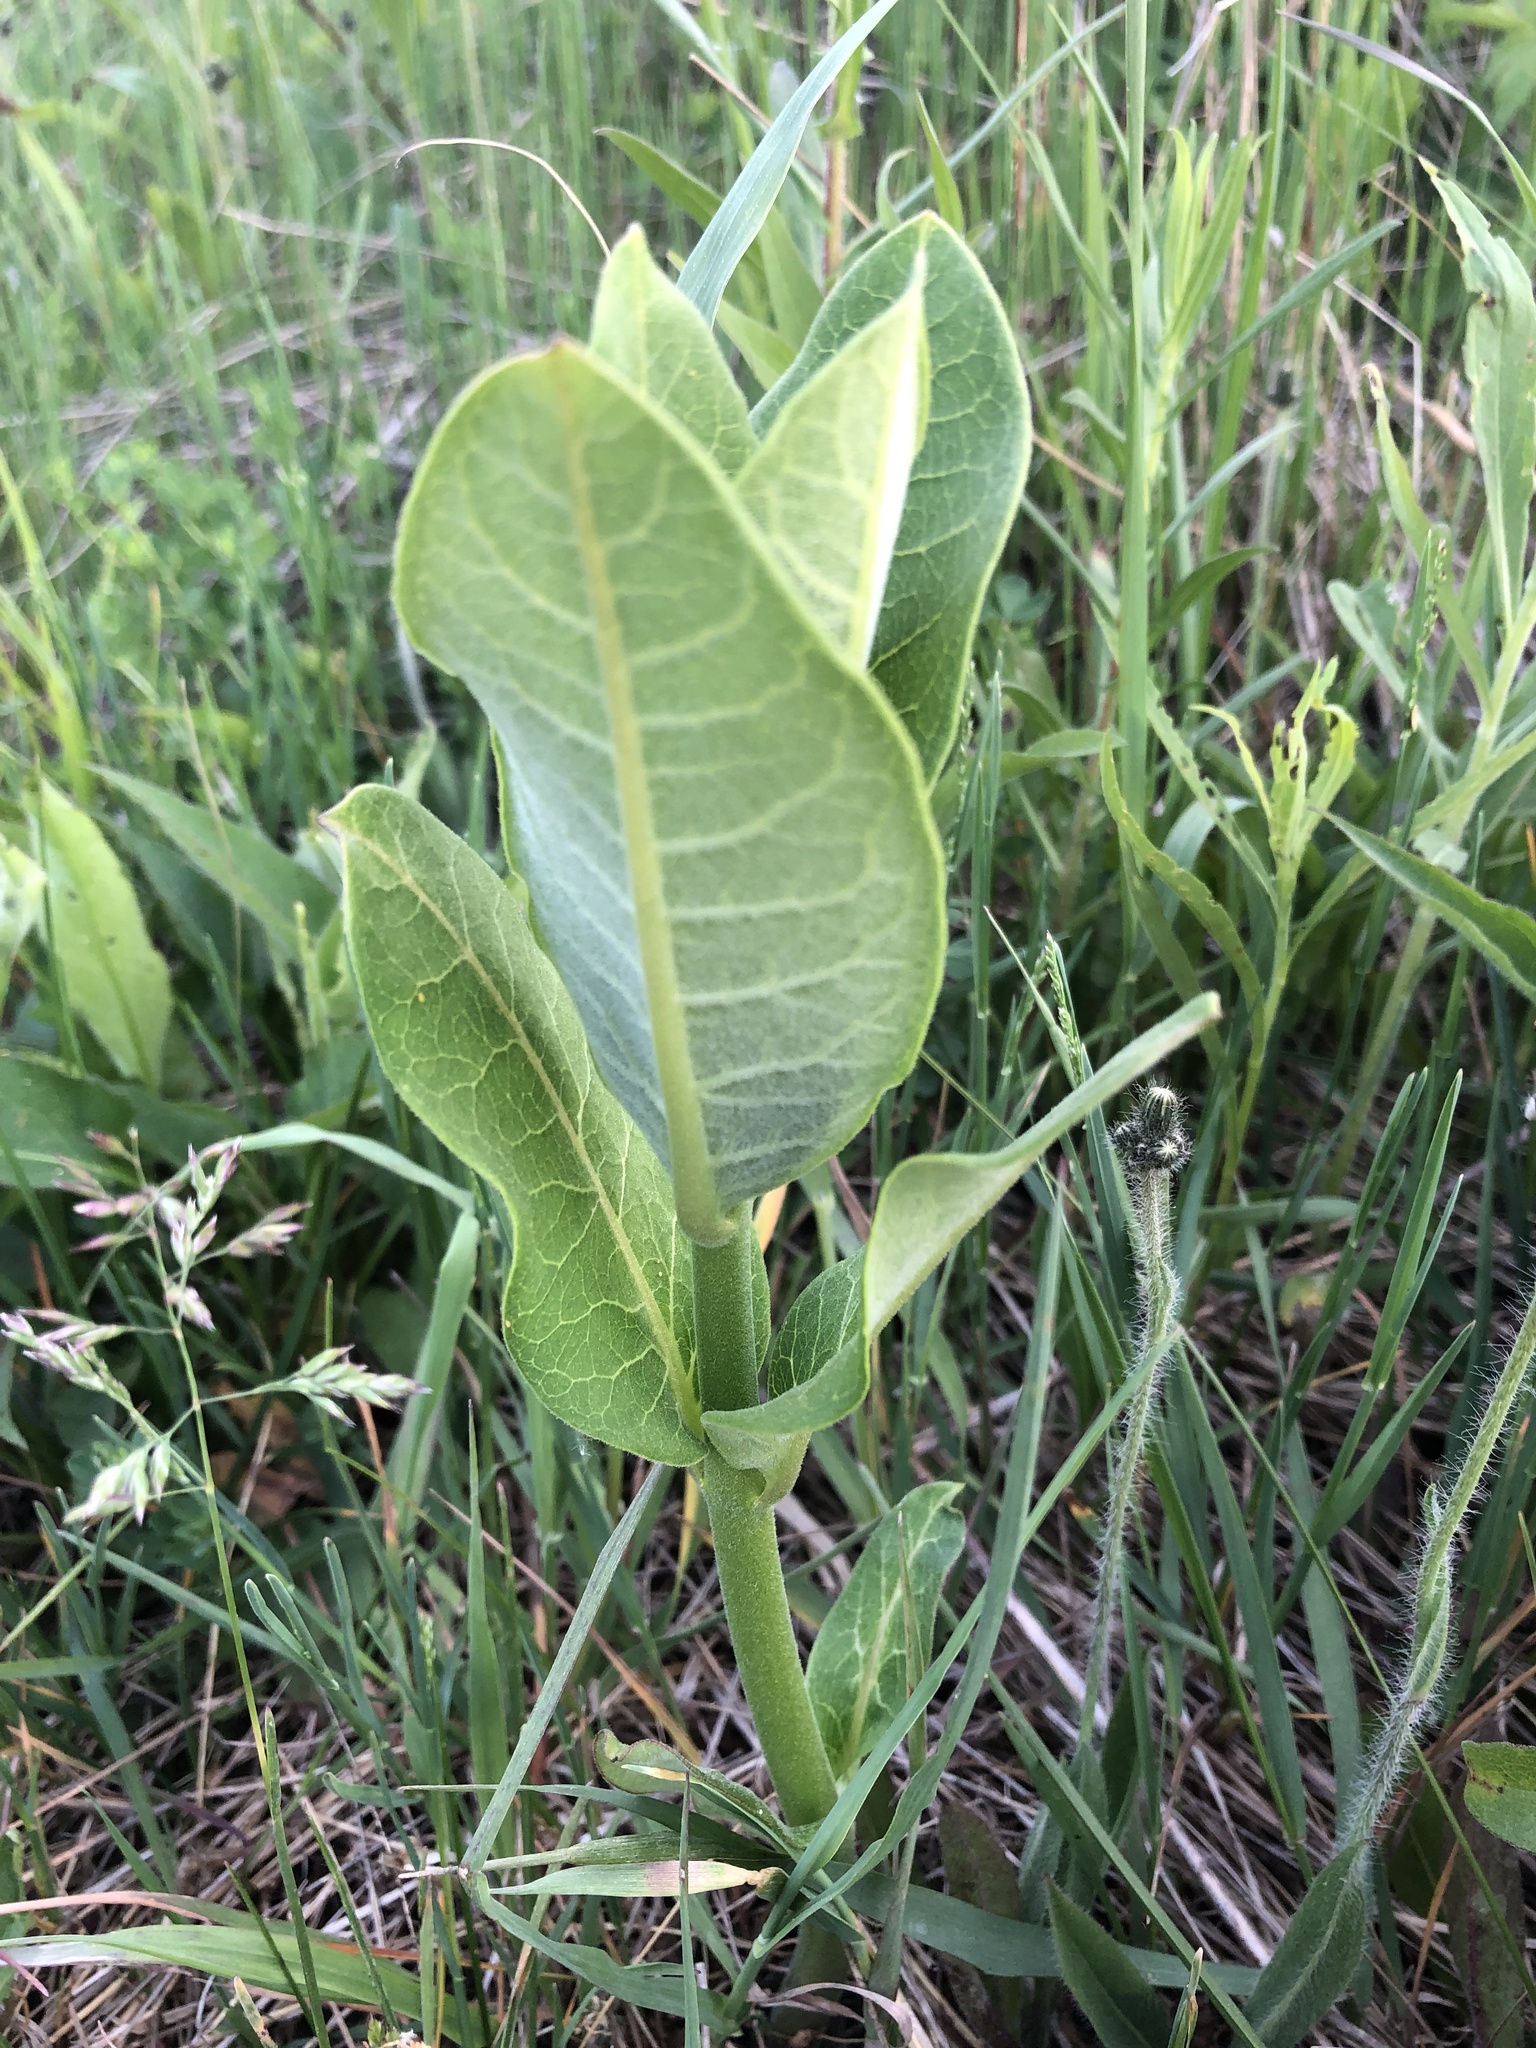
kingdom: Plantae
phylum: Tracheophyta
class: Magnoliopsida
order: Gentianales
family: Apocynaceae
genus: Asclepias
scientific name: Asclepias syriaca
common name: Common milkweed
